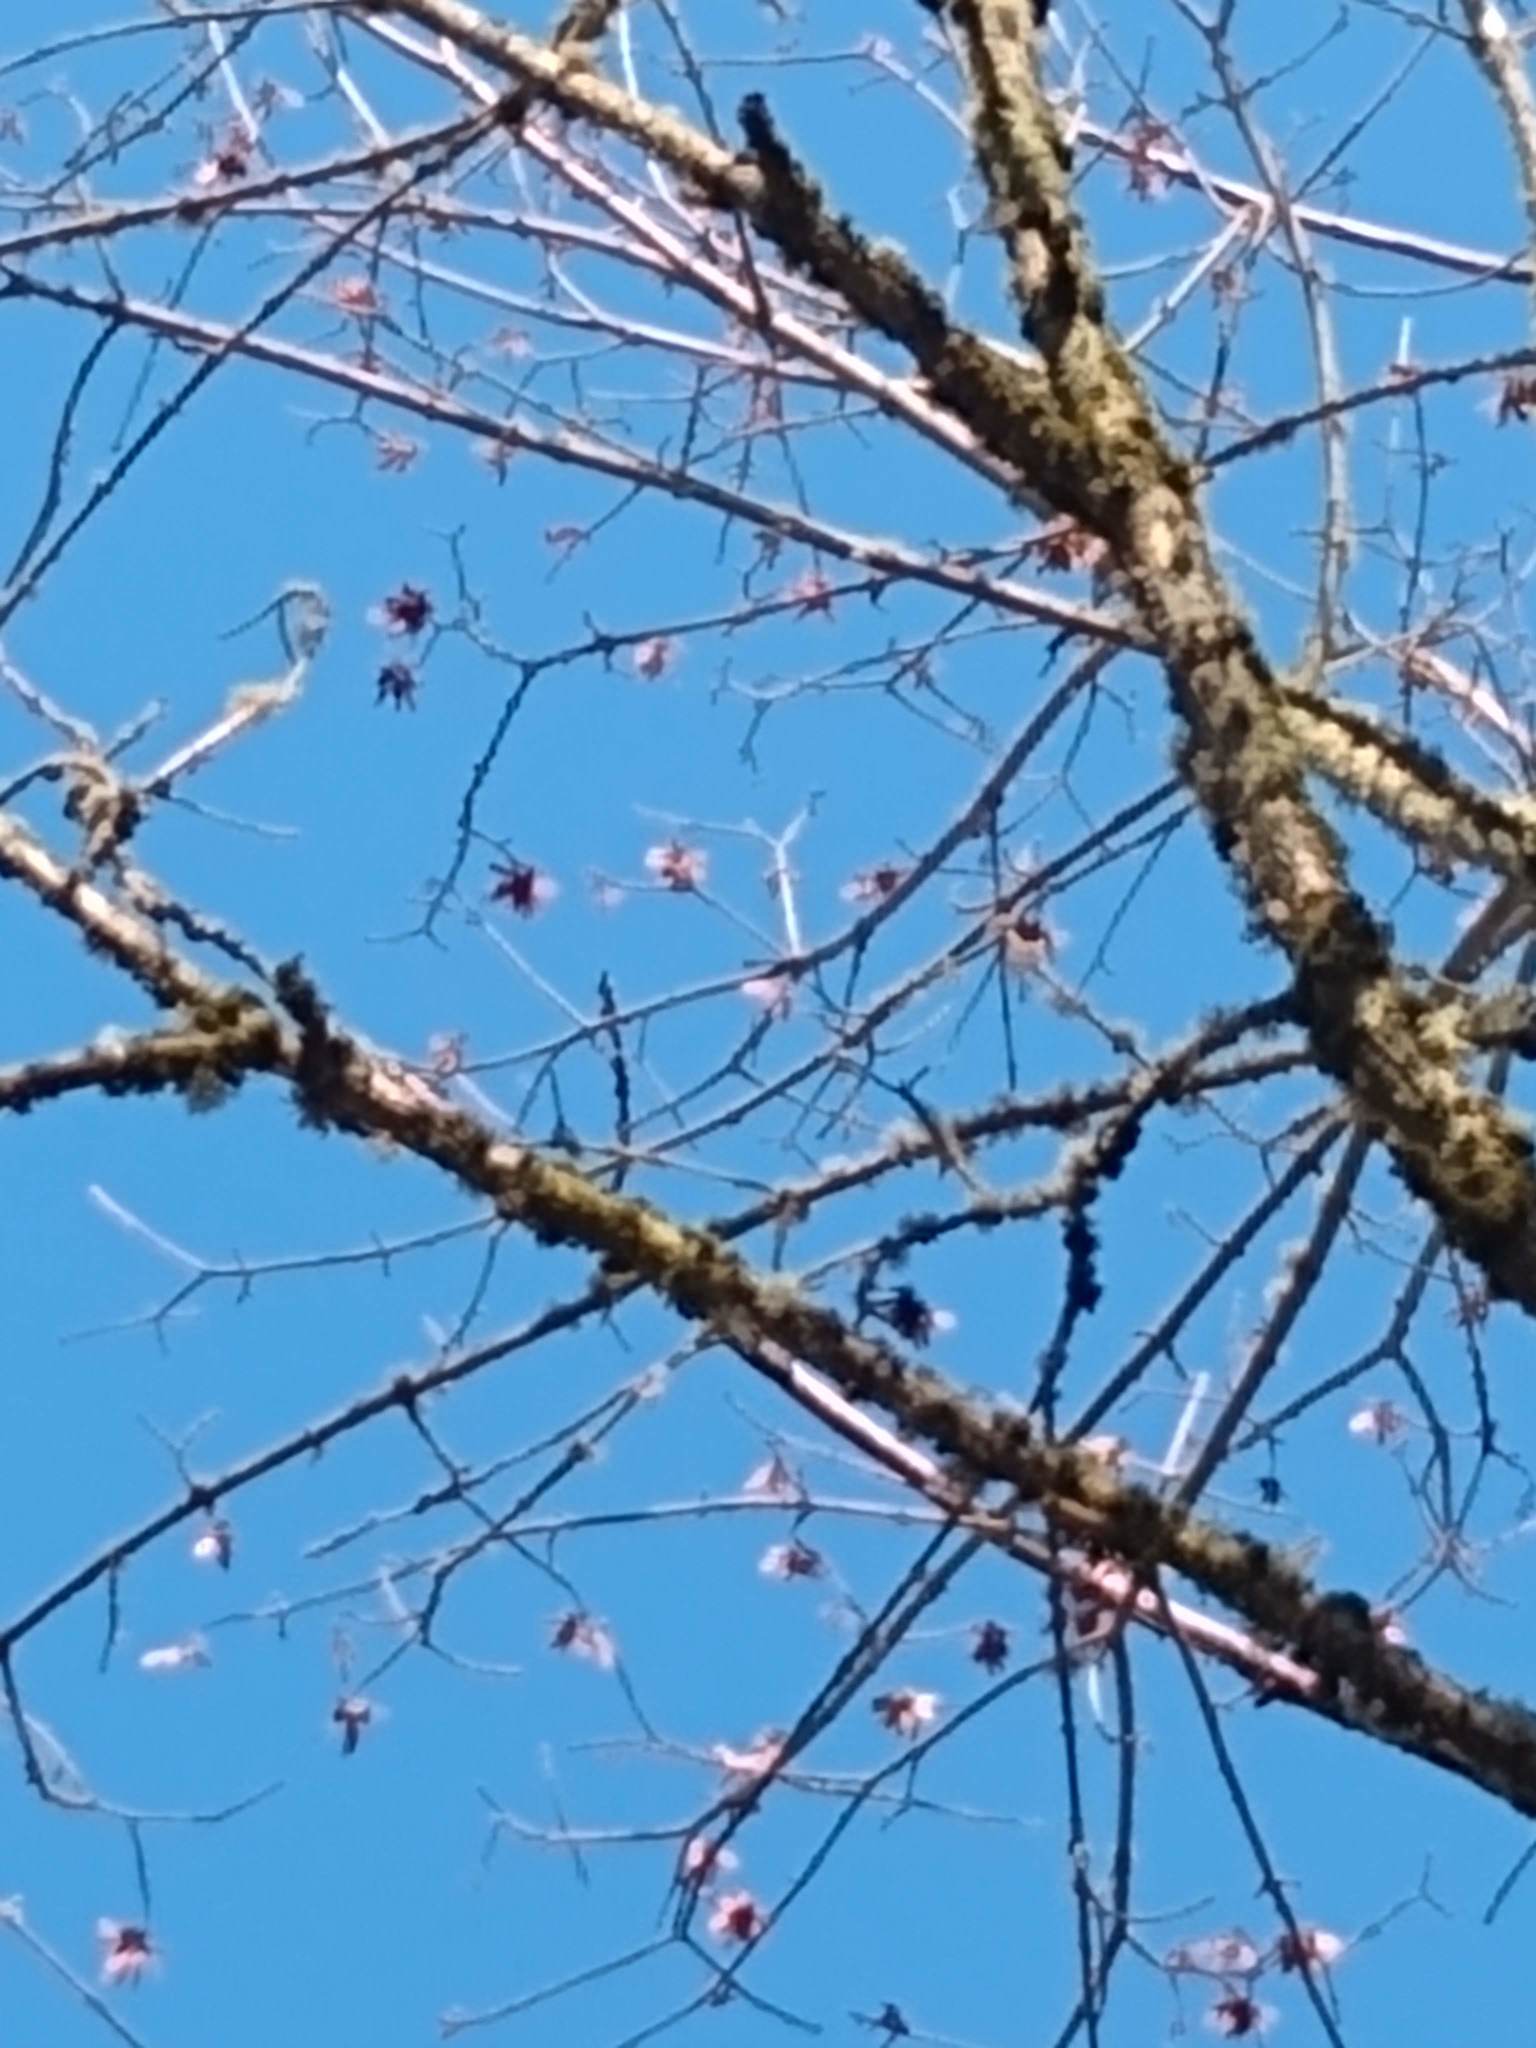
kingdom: Plantae
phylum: Tracheophyta
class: Magnoliopsida
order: Sapindales
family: Sapindaceae
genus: Acer
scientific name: Acer macrophyllum
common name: Oregon maple
